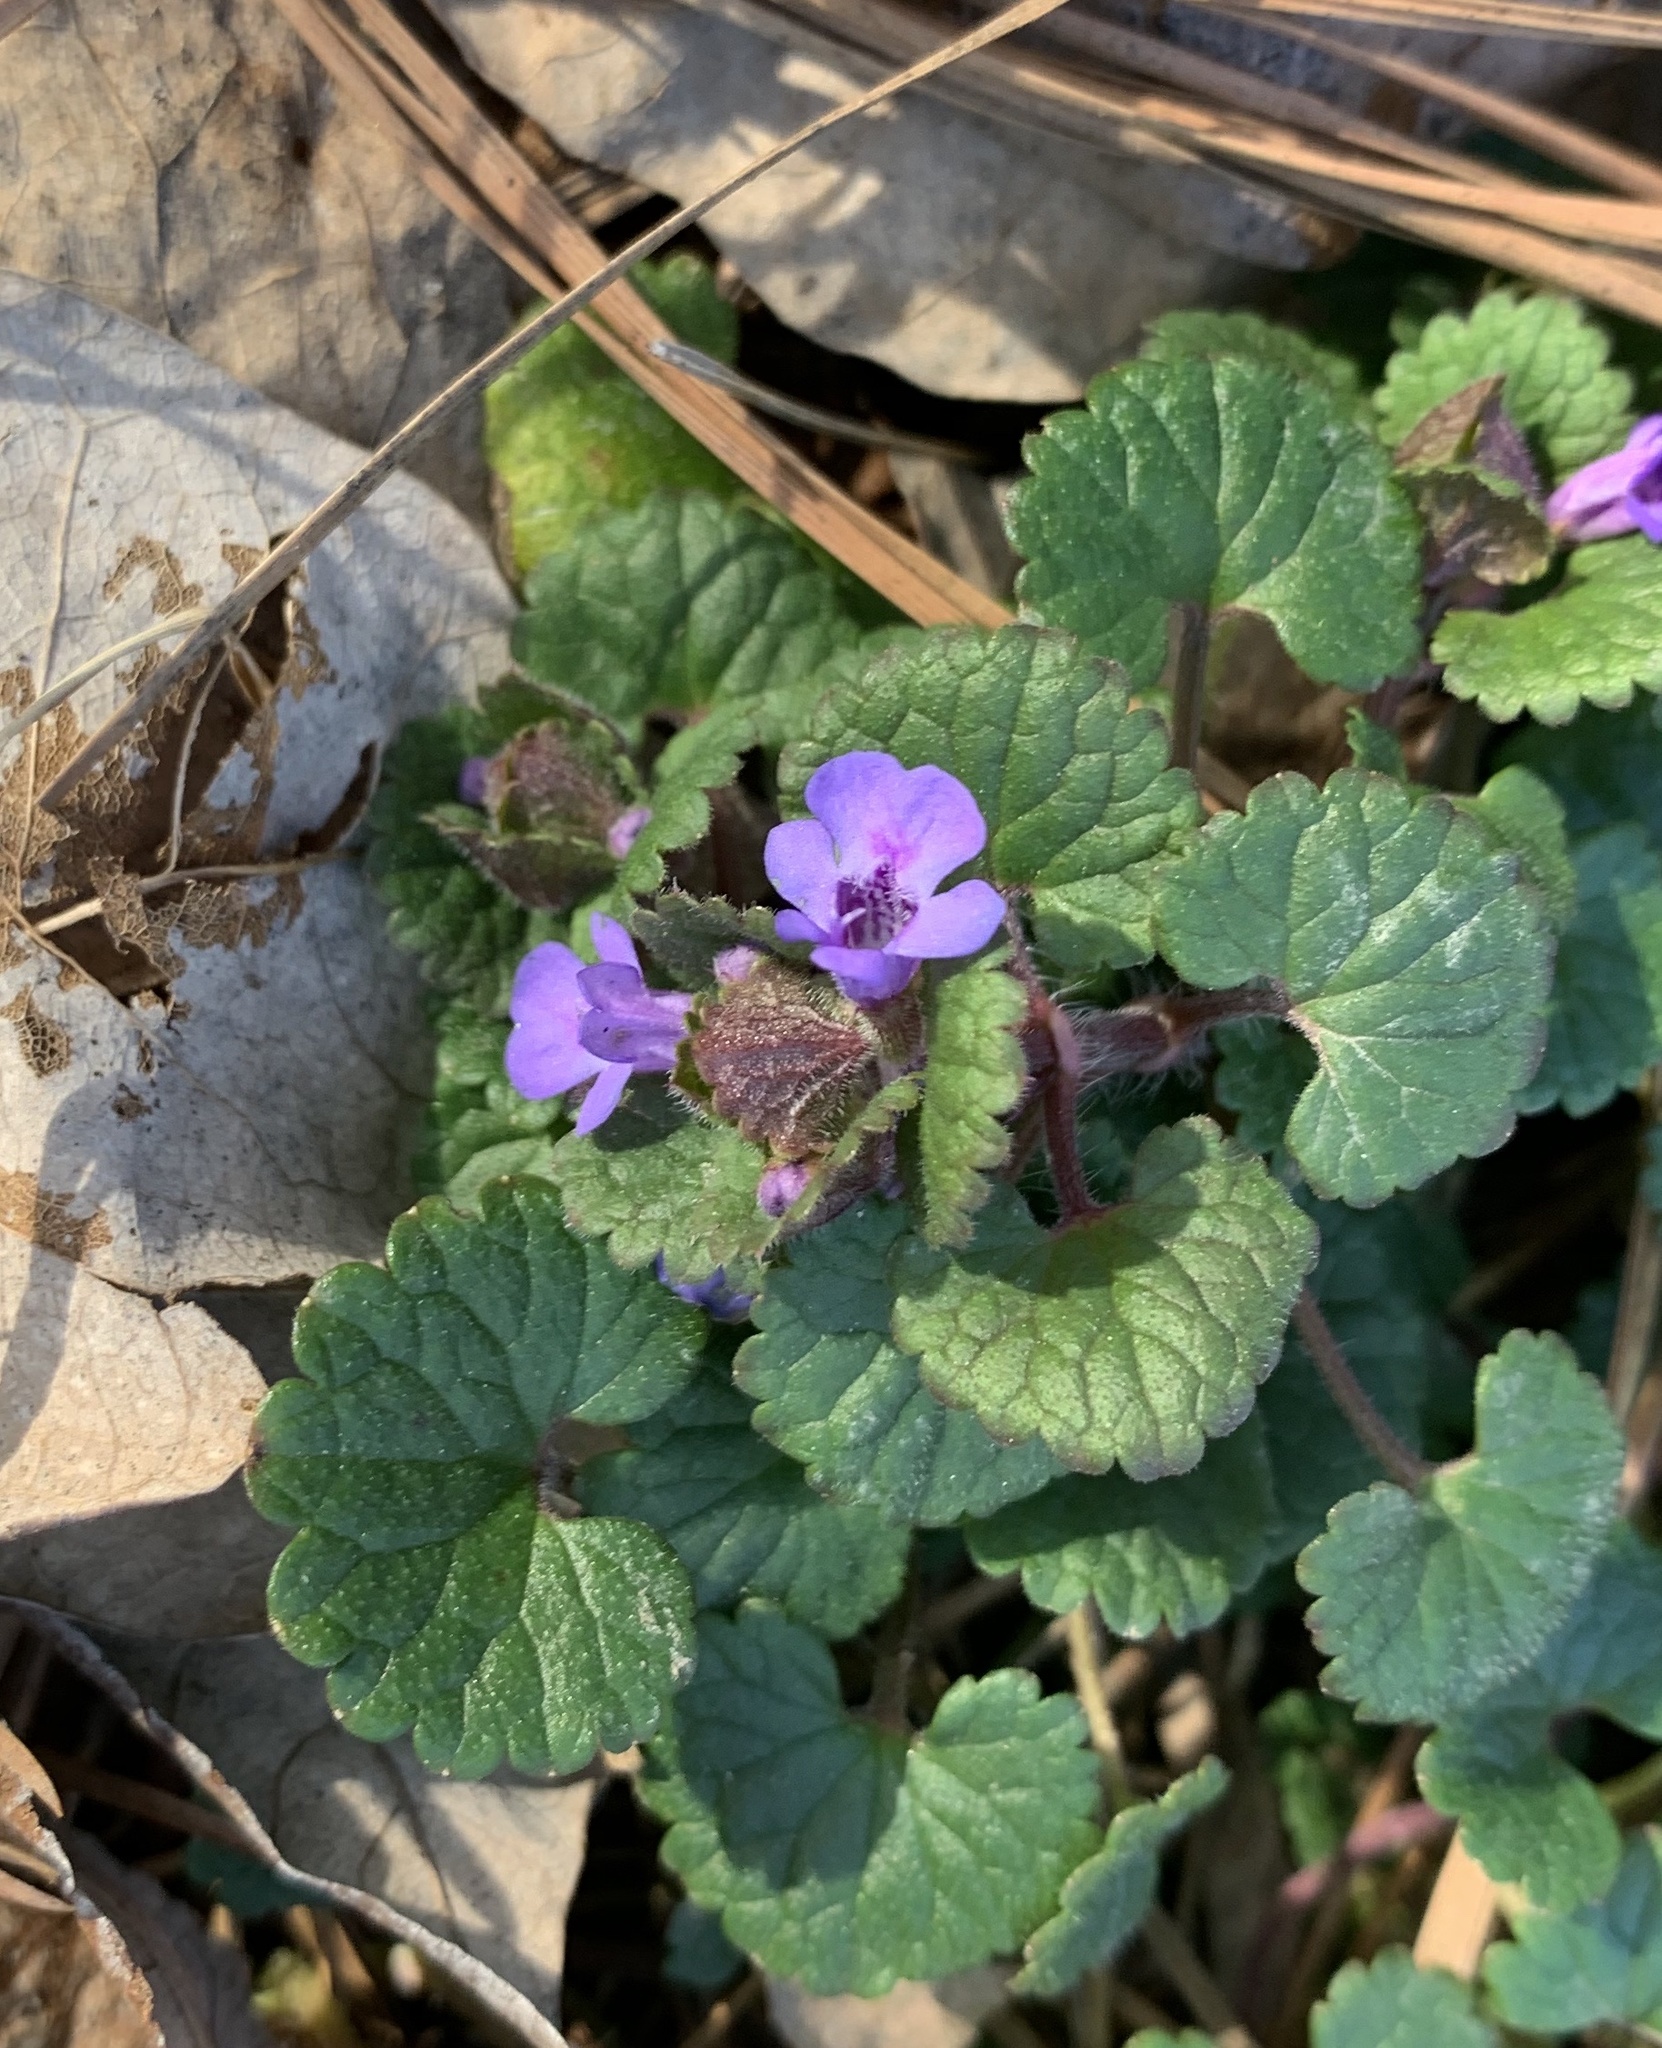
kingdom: Plantae
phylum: Tracheophyta
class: Magnoliopsida
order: Lamiales
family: Lamiaceae
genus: Glechoma
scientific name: Glechoma hederacea
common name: Ground ivy
